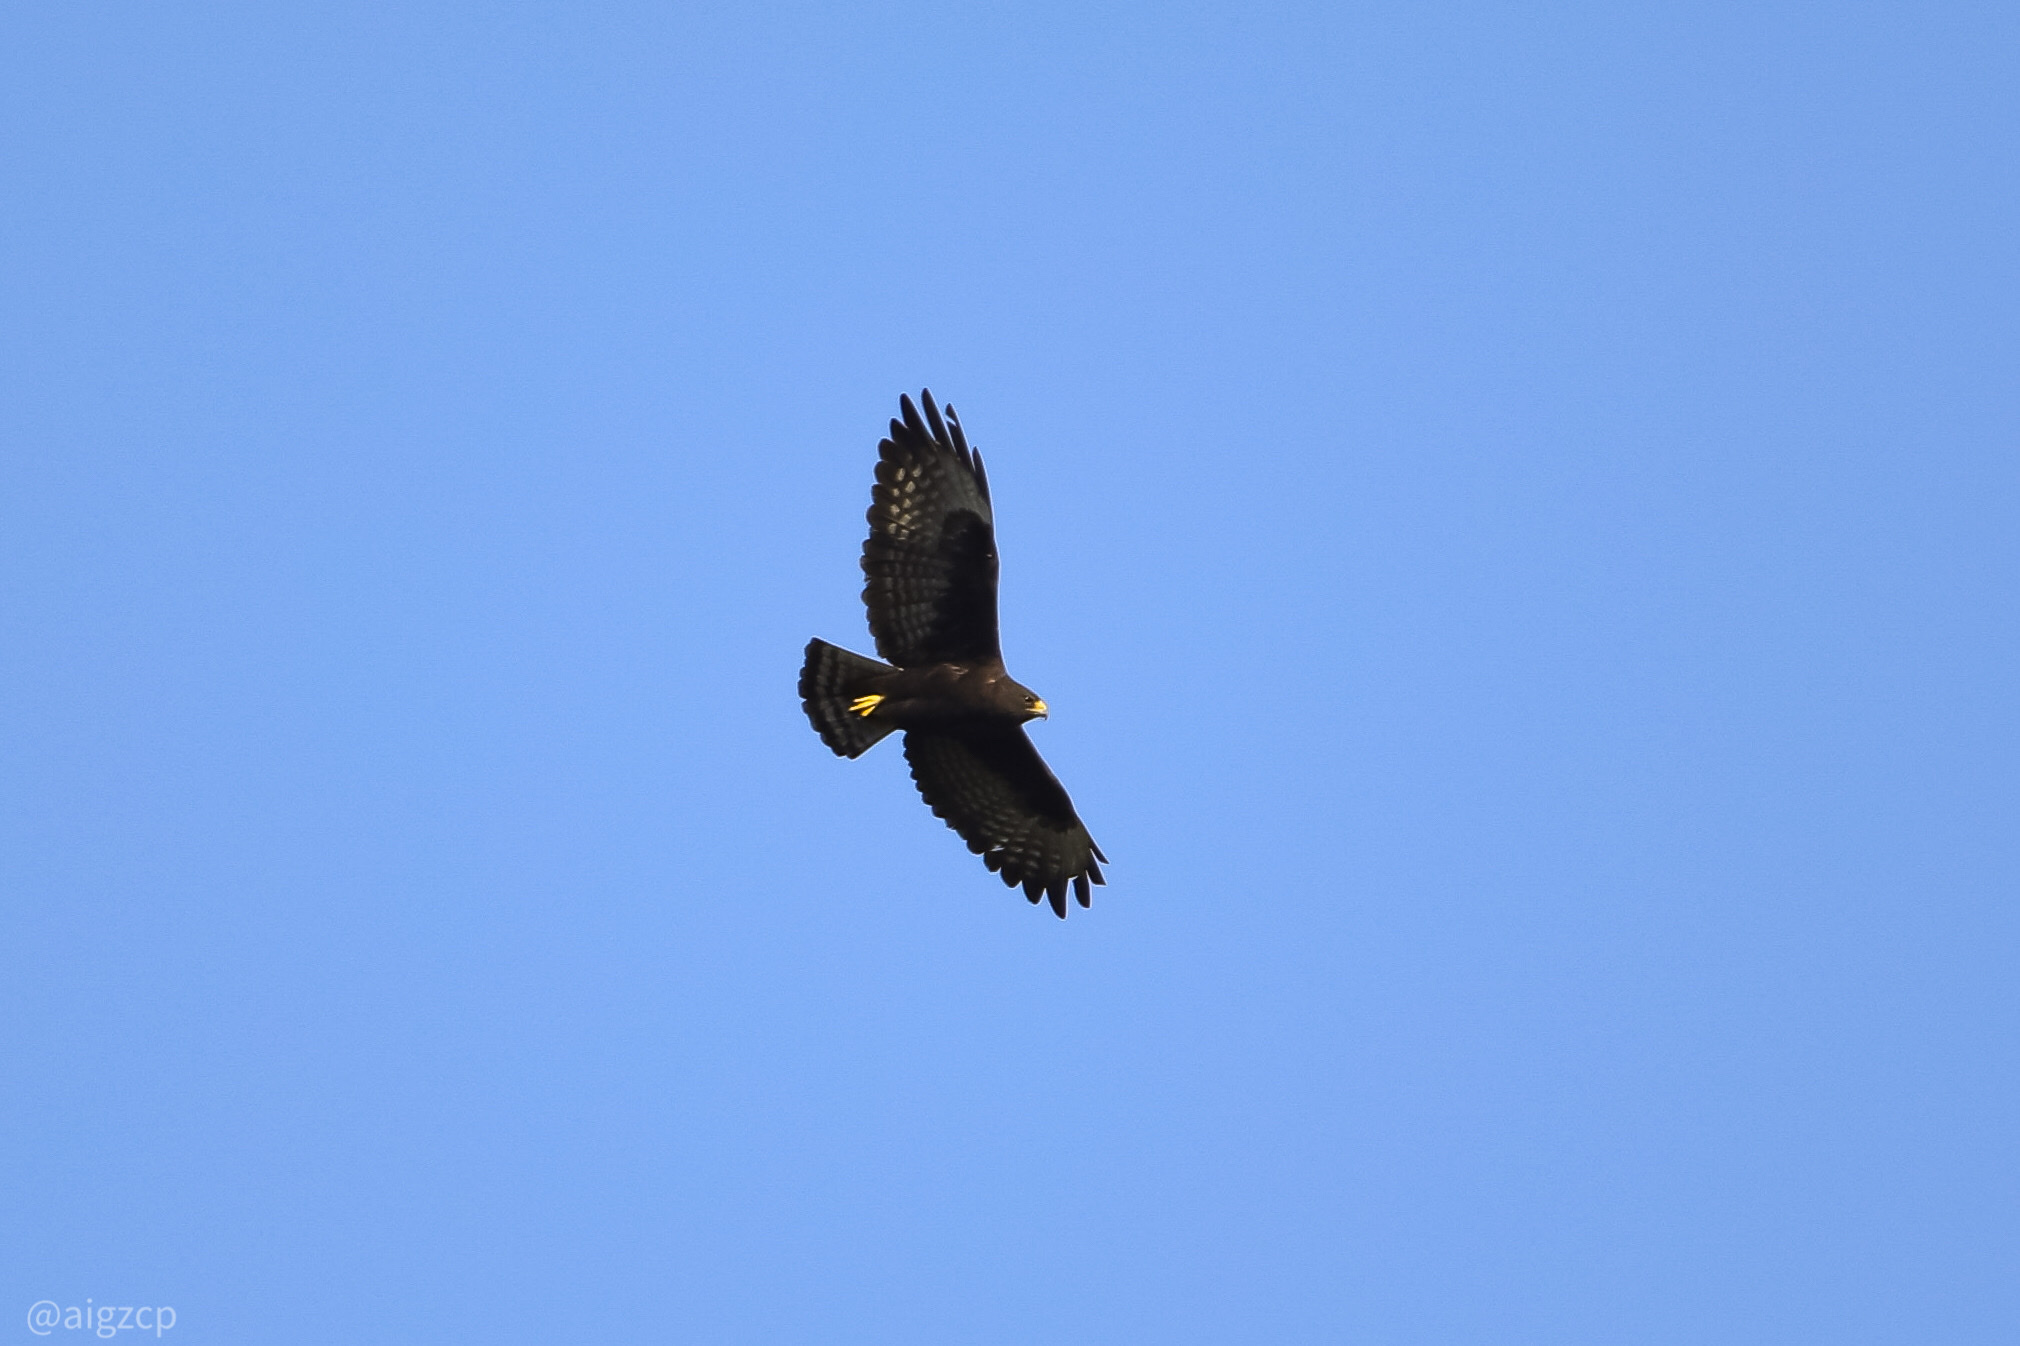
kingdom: Animalia
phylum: Chordata
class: Aves
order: Accipitriformes
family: Accipitridae
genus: Buteo
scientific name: Buteo brachyurus
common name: Short-tailed hawk
